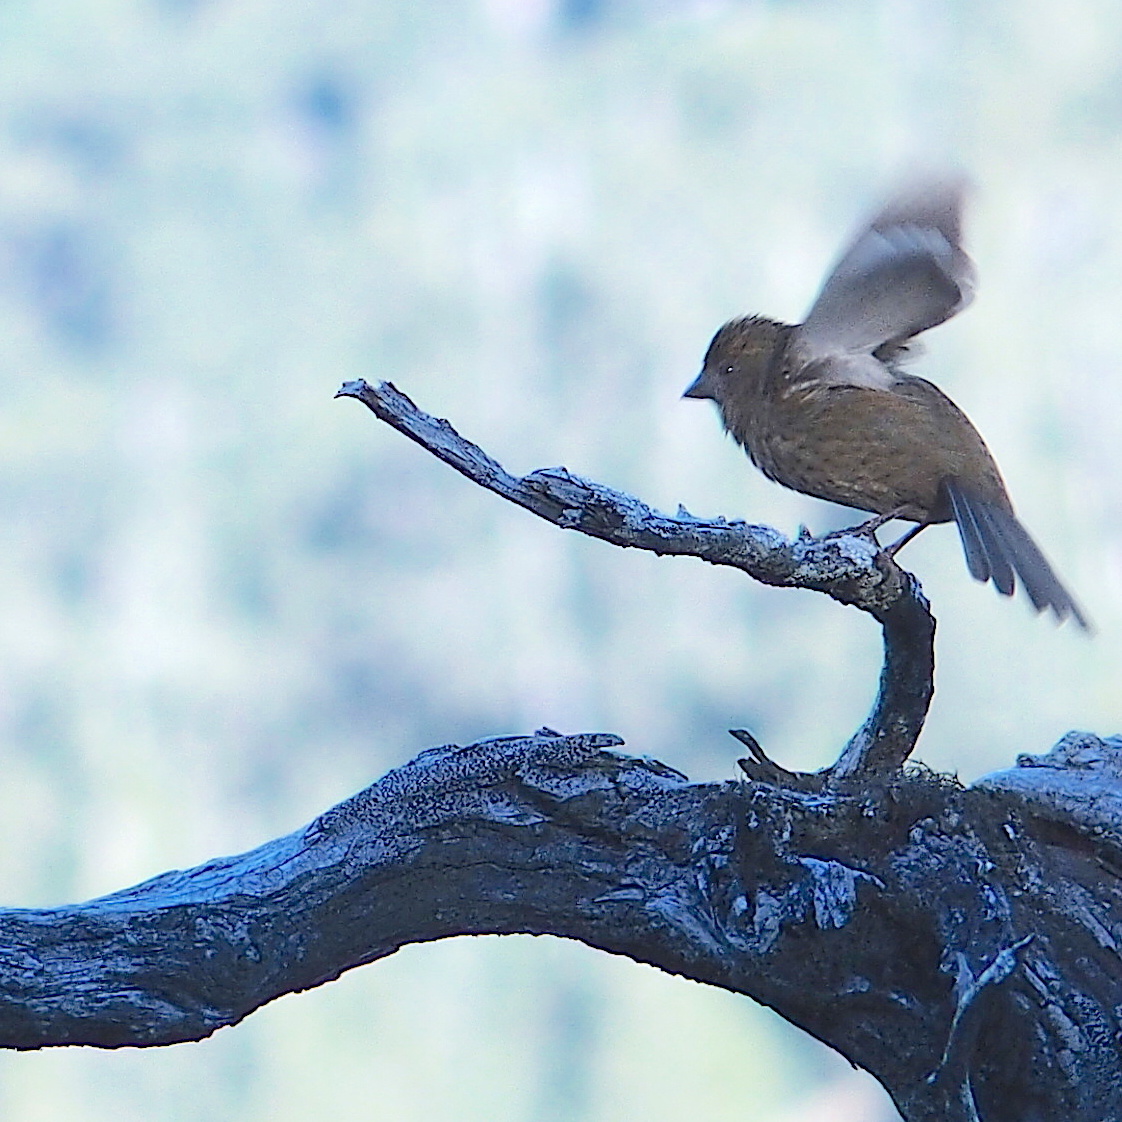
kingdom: Animalia
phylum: Chordata
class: Aves
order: Passeriformes
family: Fringillidae
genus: Carpodacus
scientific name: Carpodacus formosanus
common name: Taiwan rosefinch
